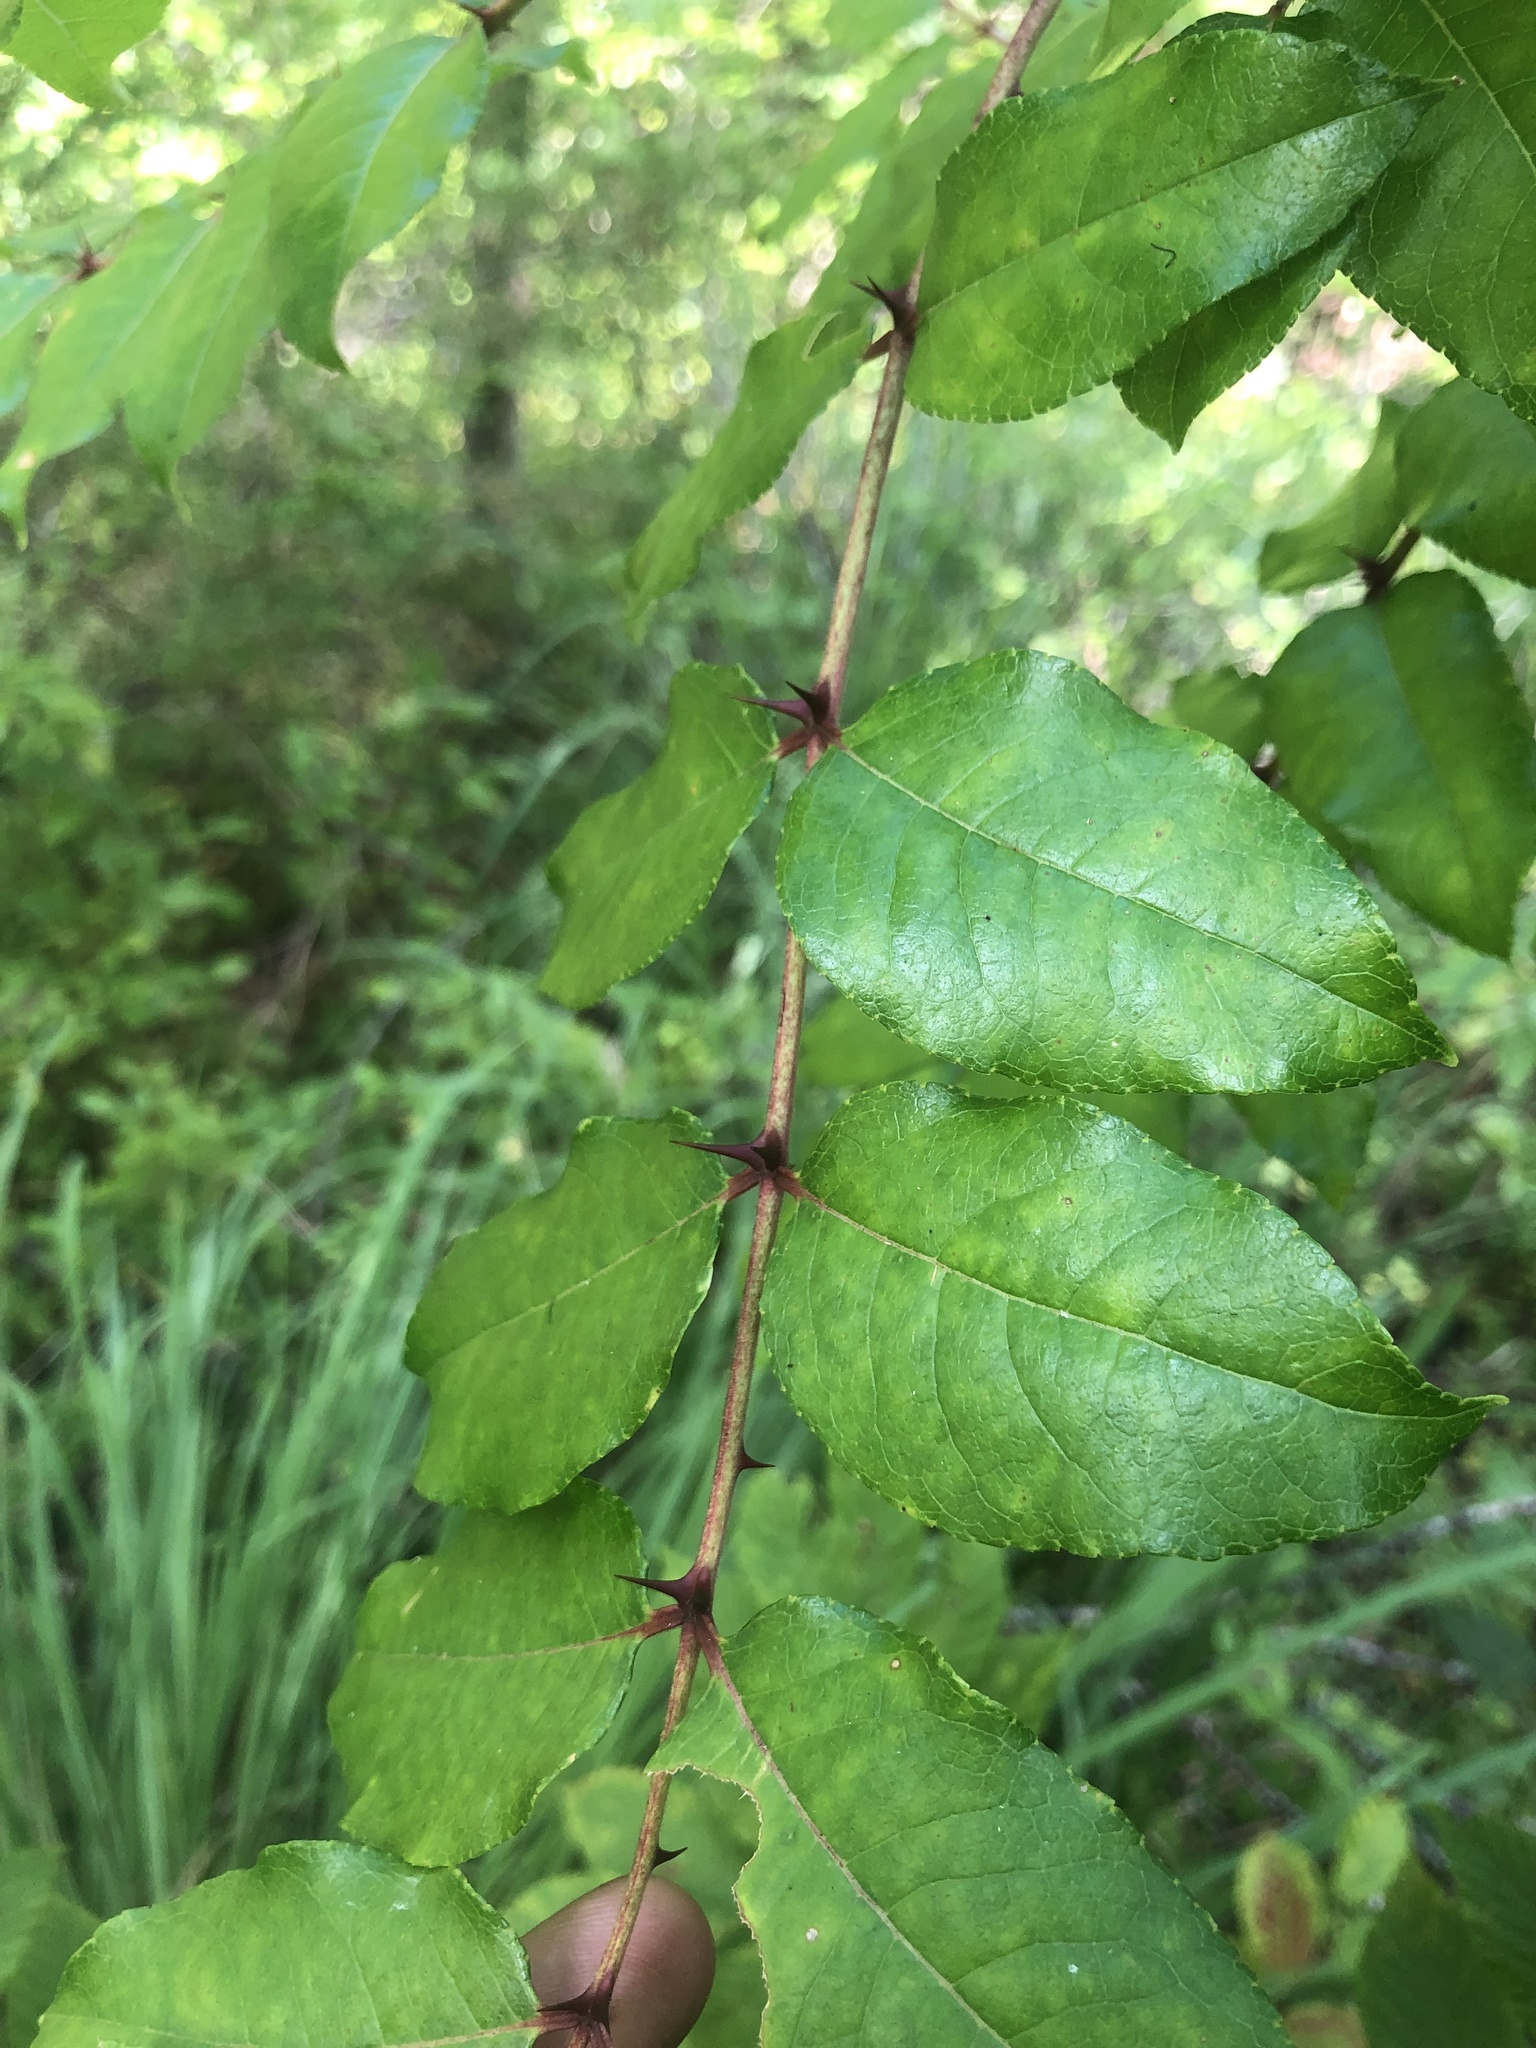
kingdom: Plantae
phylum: Tracheophyta
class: Magnoliopsida
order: Sapindales
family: Rutaceae
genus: Zanthoxylum
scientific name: Zanthoxylum clava-herculis
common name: Hercules'-club
